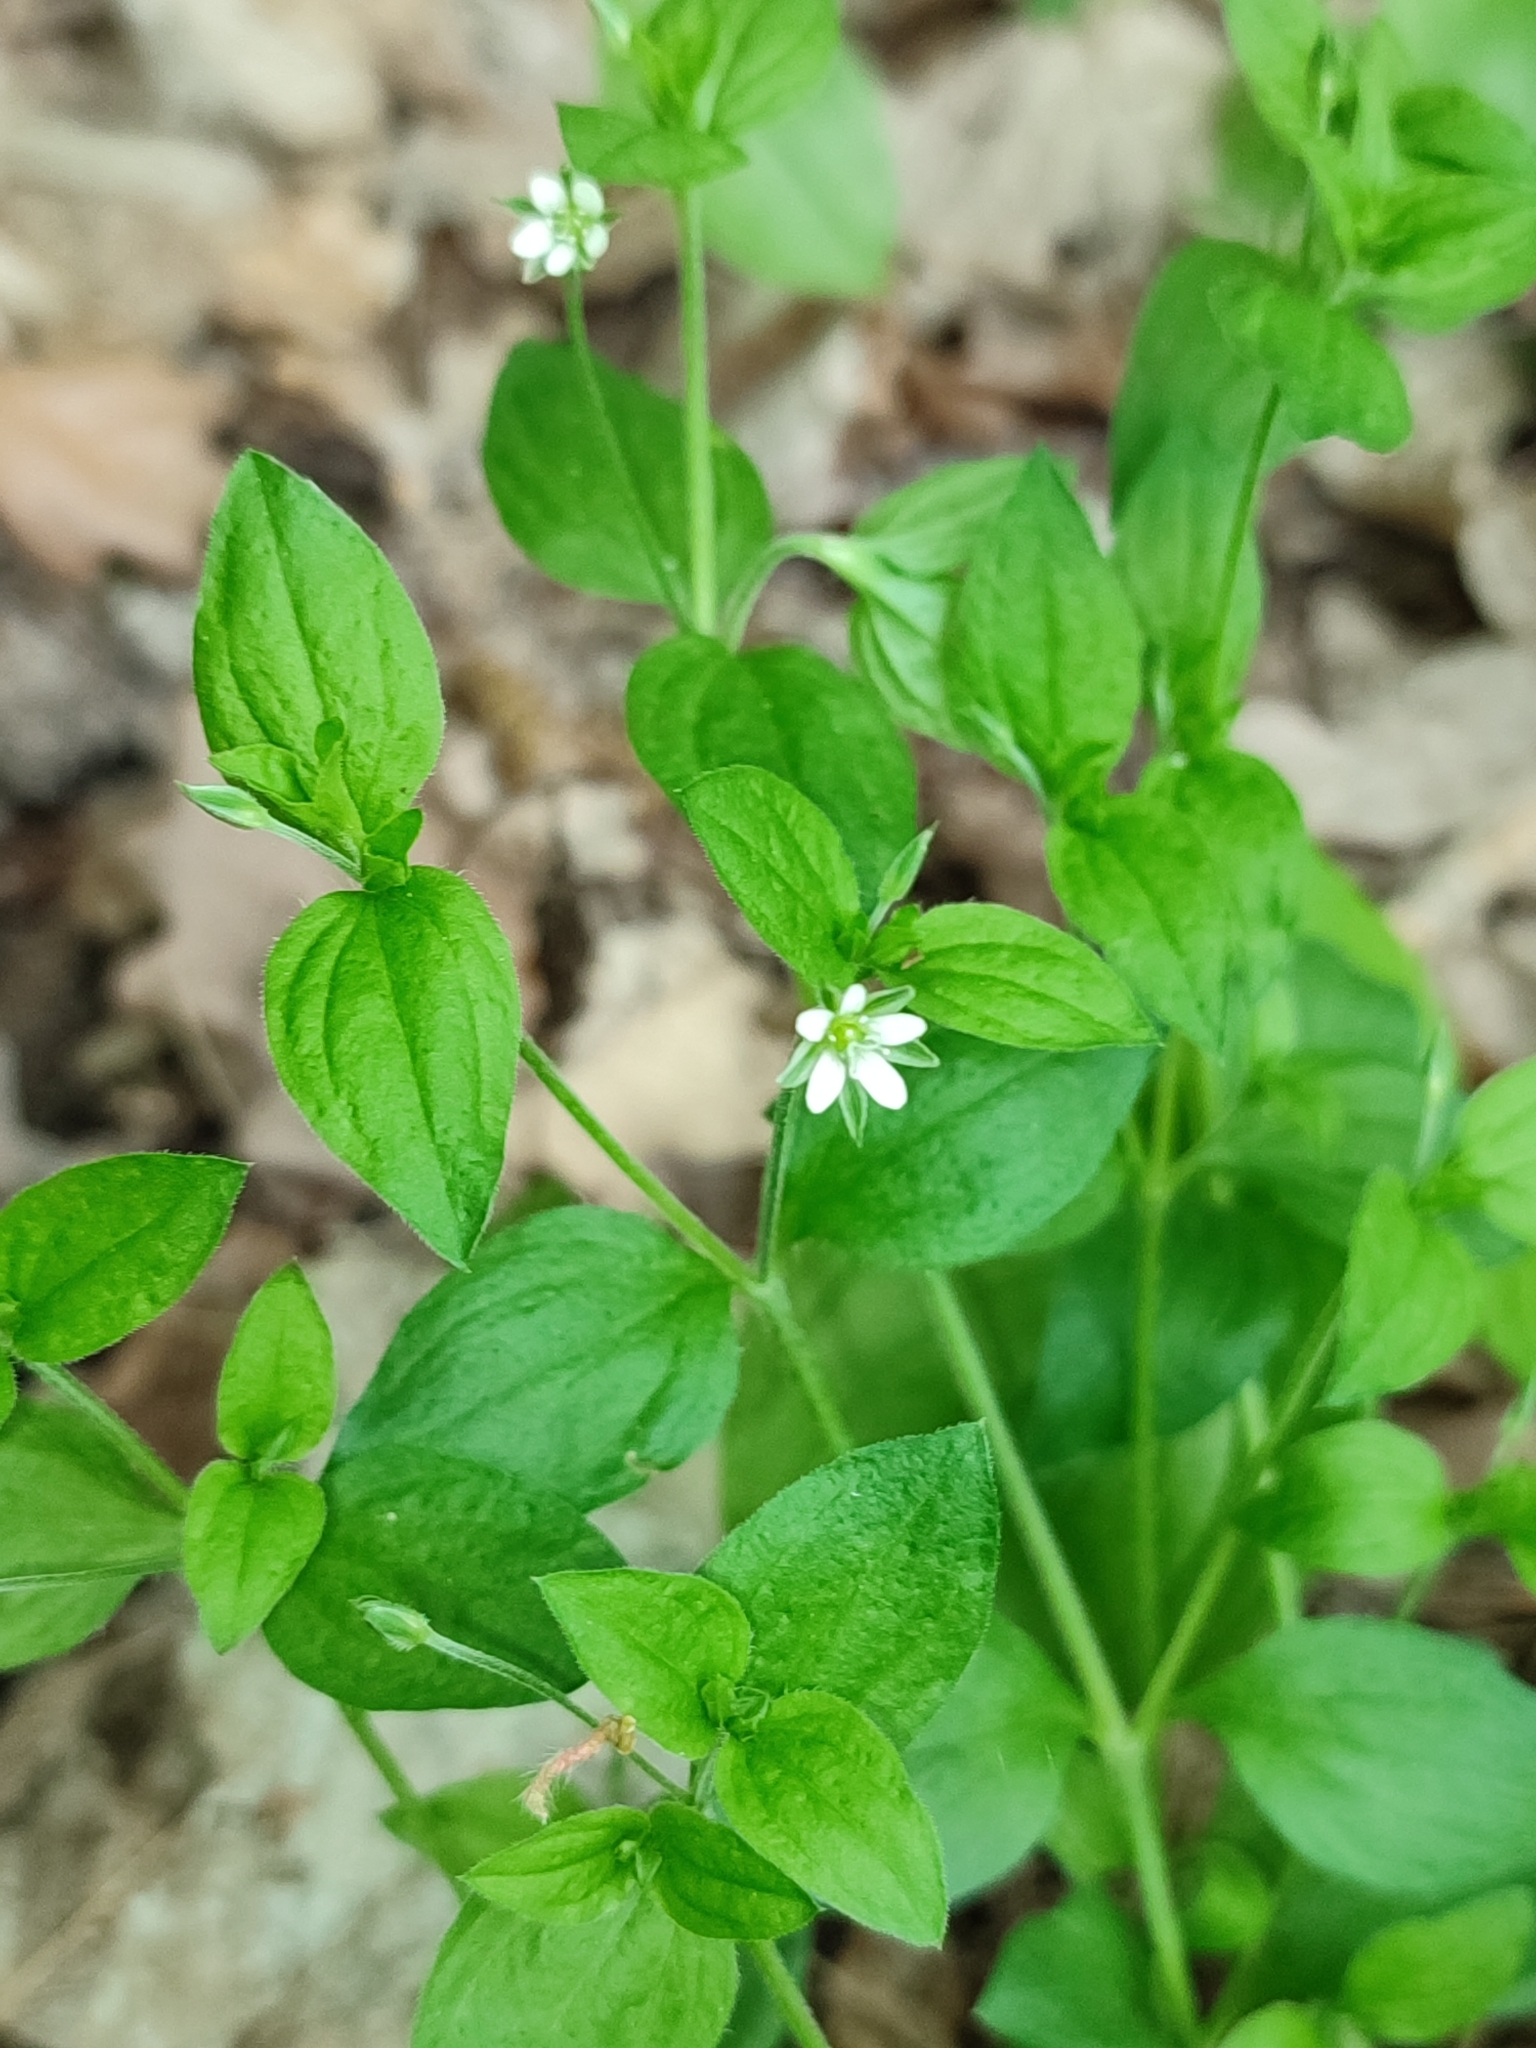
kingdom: Plantae
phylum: Tracheophyta
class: Magnoliopsida
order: Caryophyllales
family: Caryophyllaceae
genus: Moehringia
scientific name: Moehringia trinervia
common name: Three-nerved sandwort
